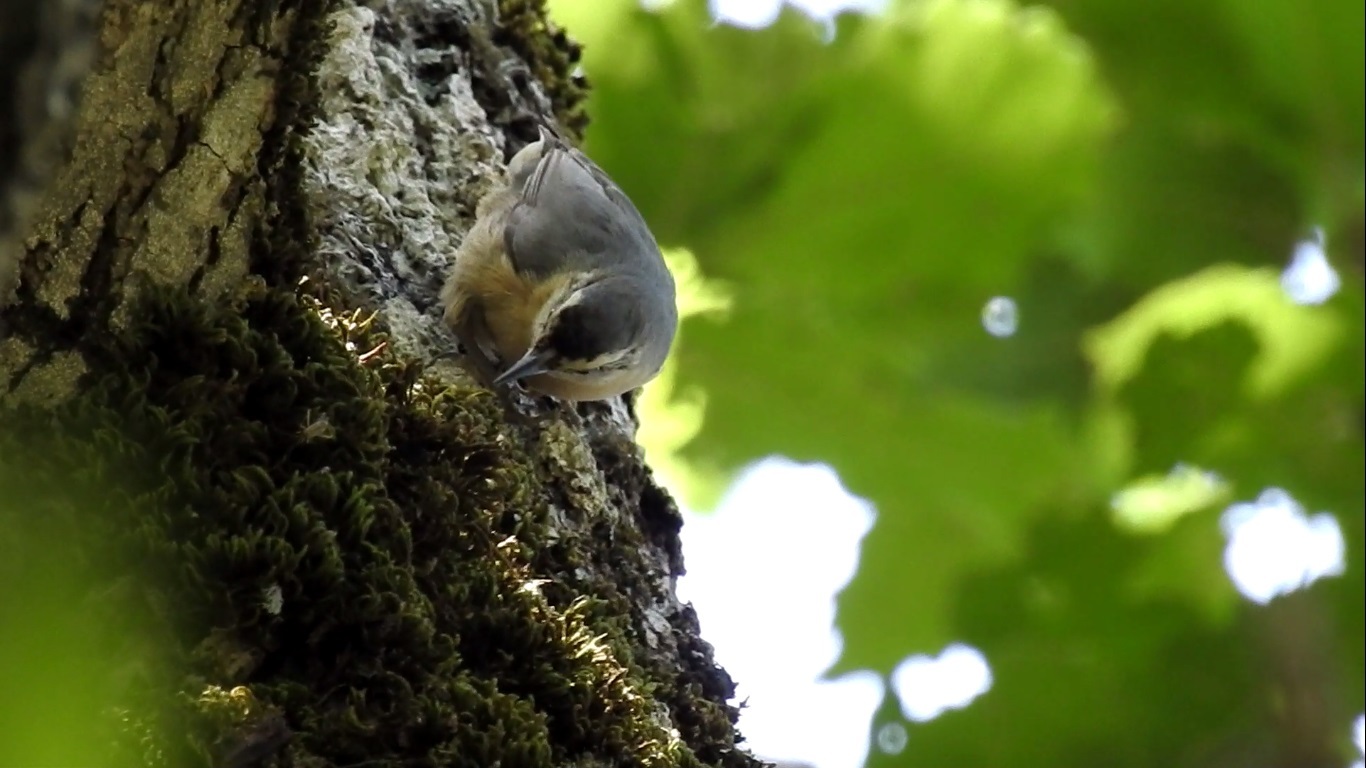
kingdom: Animalia
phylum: Chordata
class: Aves
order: Passeriformes
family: Sittidae
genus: Sitta
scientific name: Sitta ledanti
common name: Algerian nuthatch
